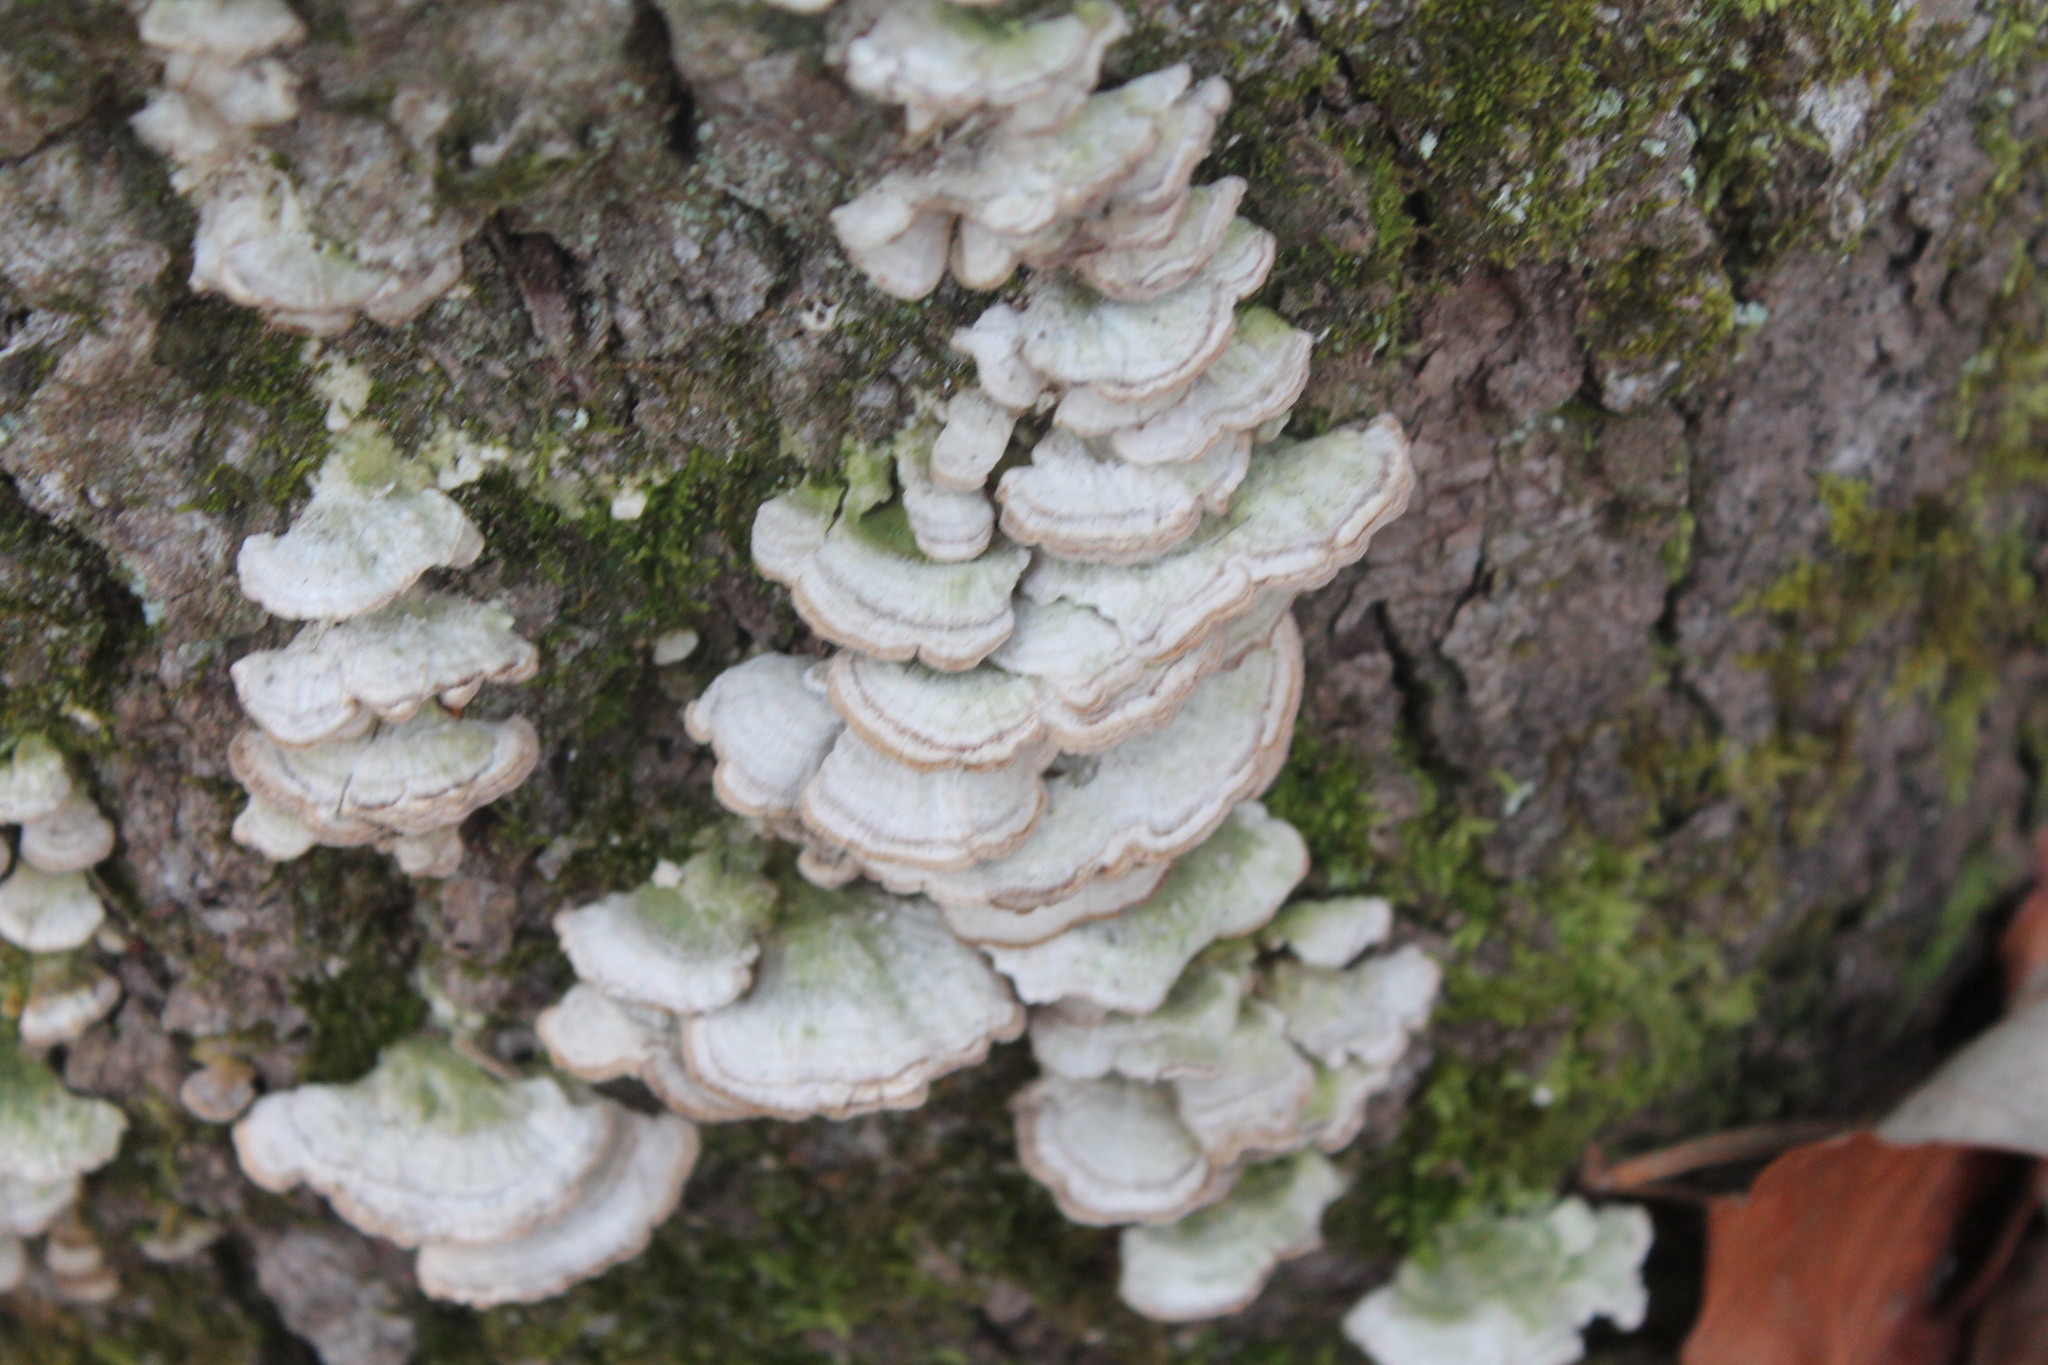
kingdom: Fungi
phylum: Basidiomycota
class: Agaricomycetes
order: Hymenochaetales
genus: Trichaptum
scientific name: Trichaptum biforme
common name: Violet-toothed polypore
